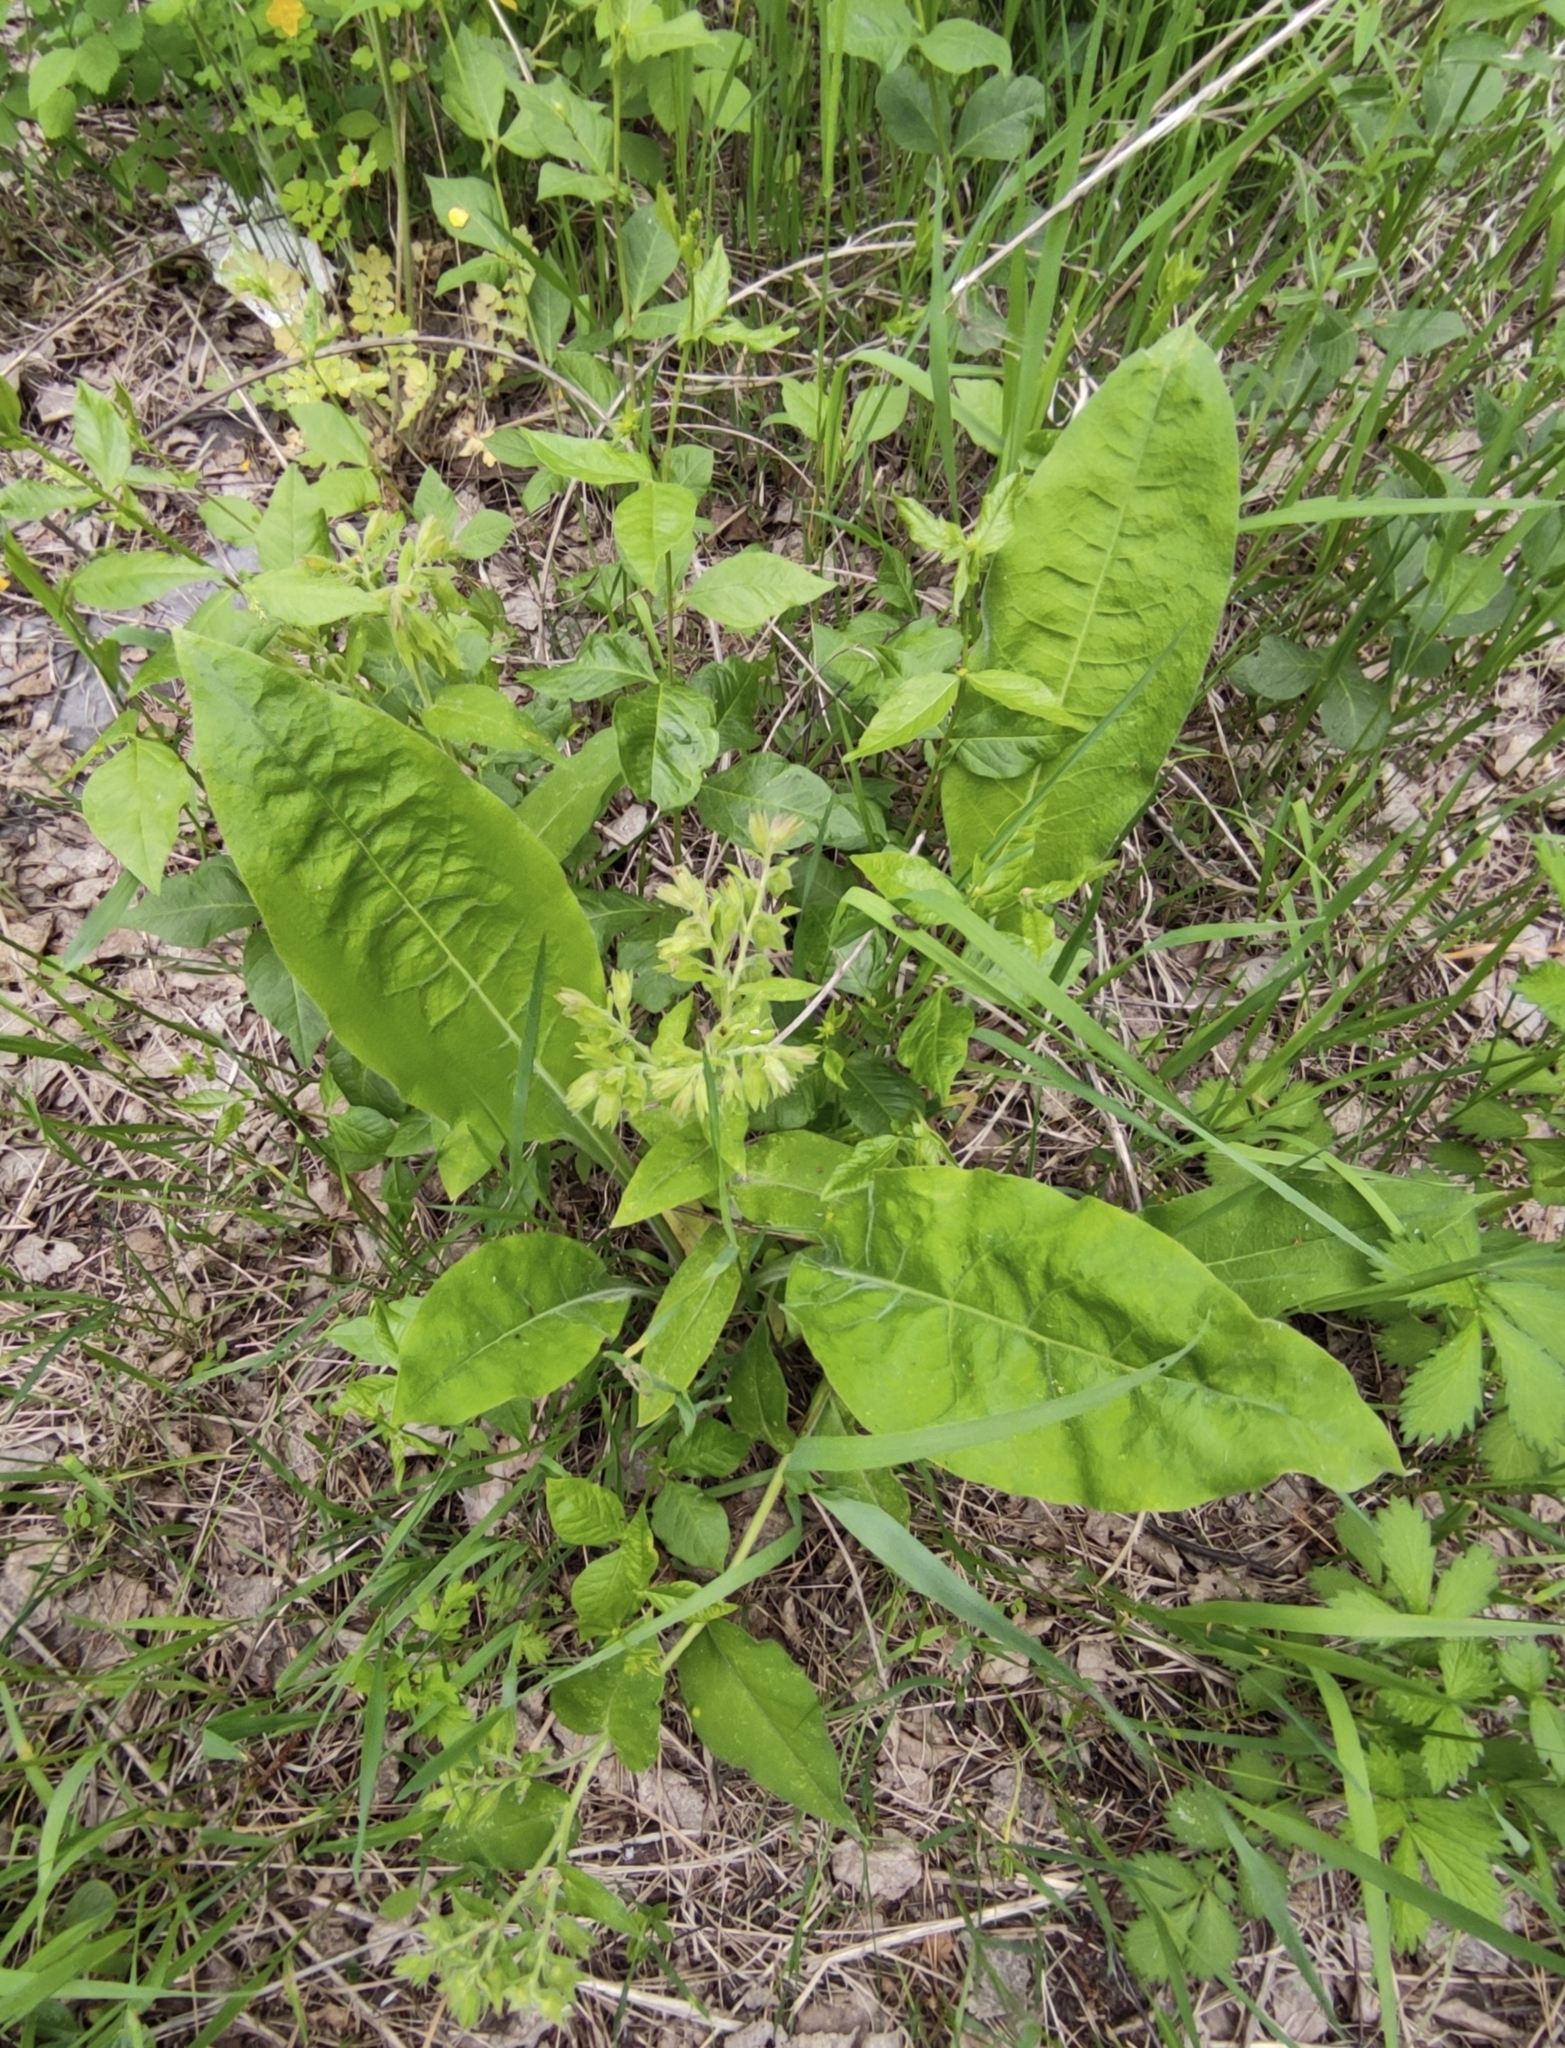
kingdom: Plantae
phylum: Tracheophyta
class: Magnoliopsida
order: Boraginales
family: Boraginaceae
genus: Pulmonaria
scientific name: Pulmonaria mollis
